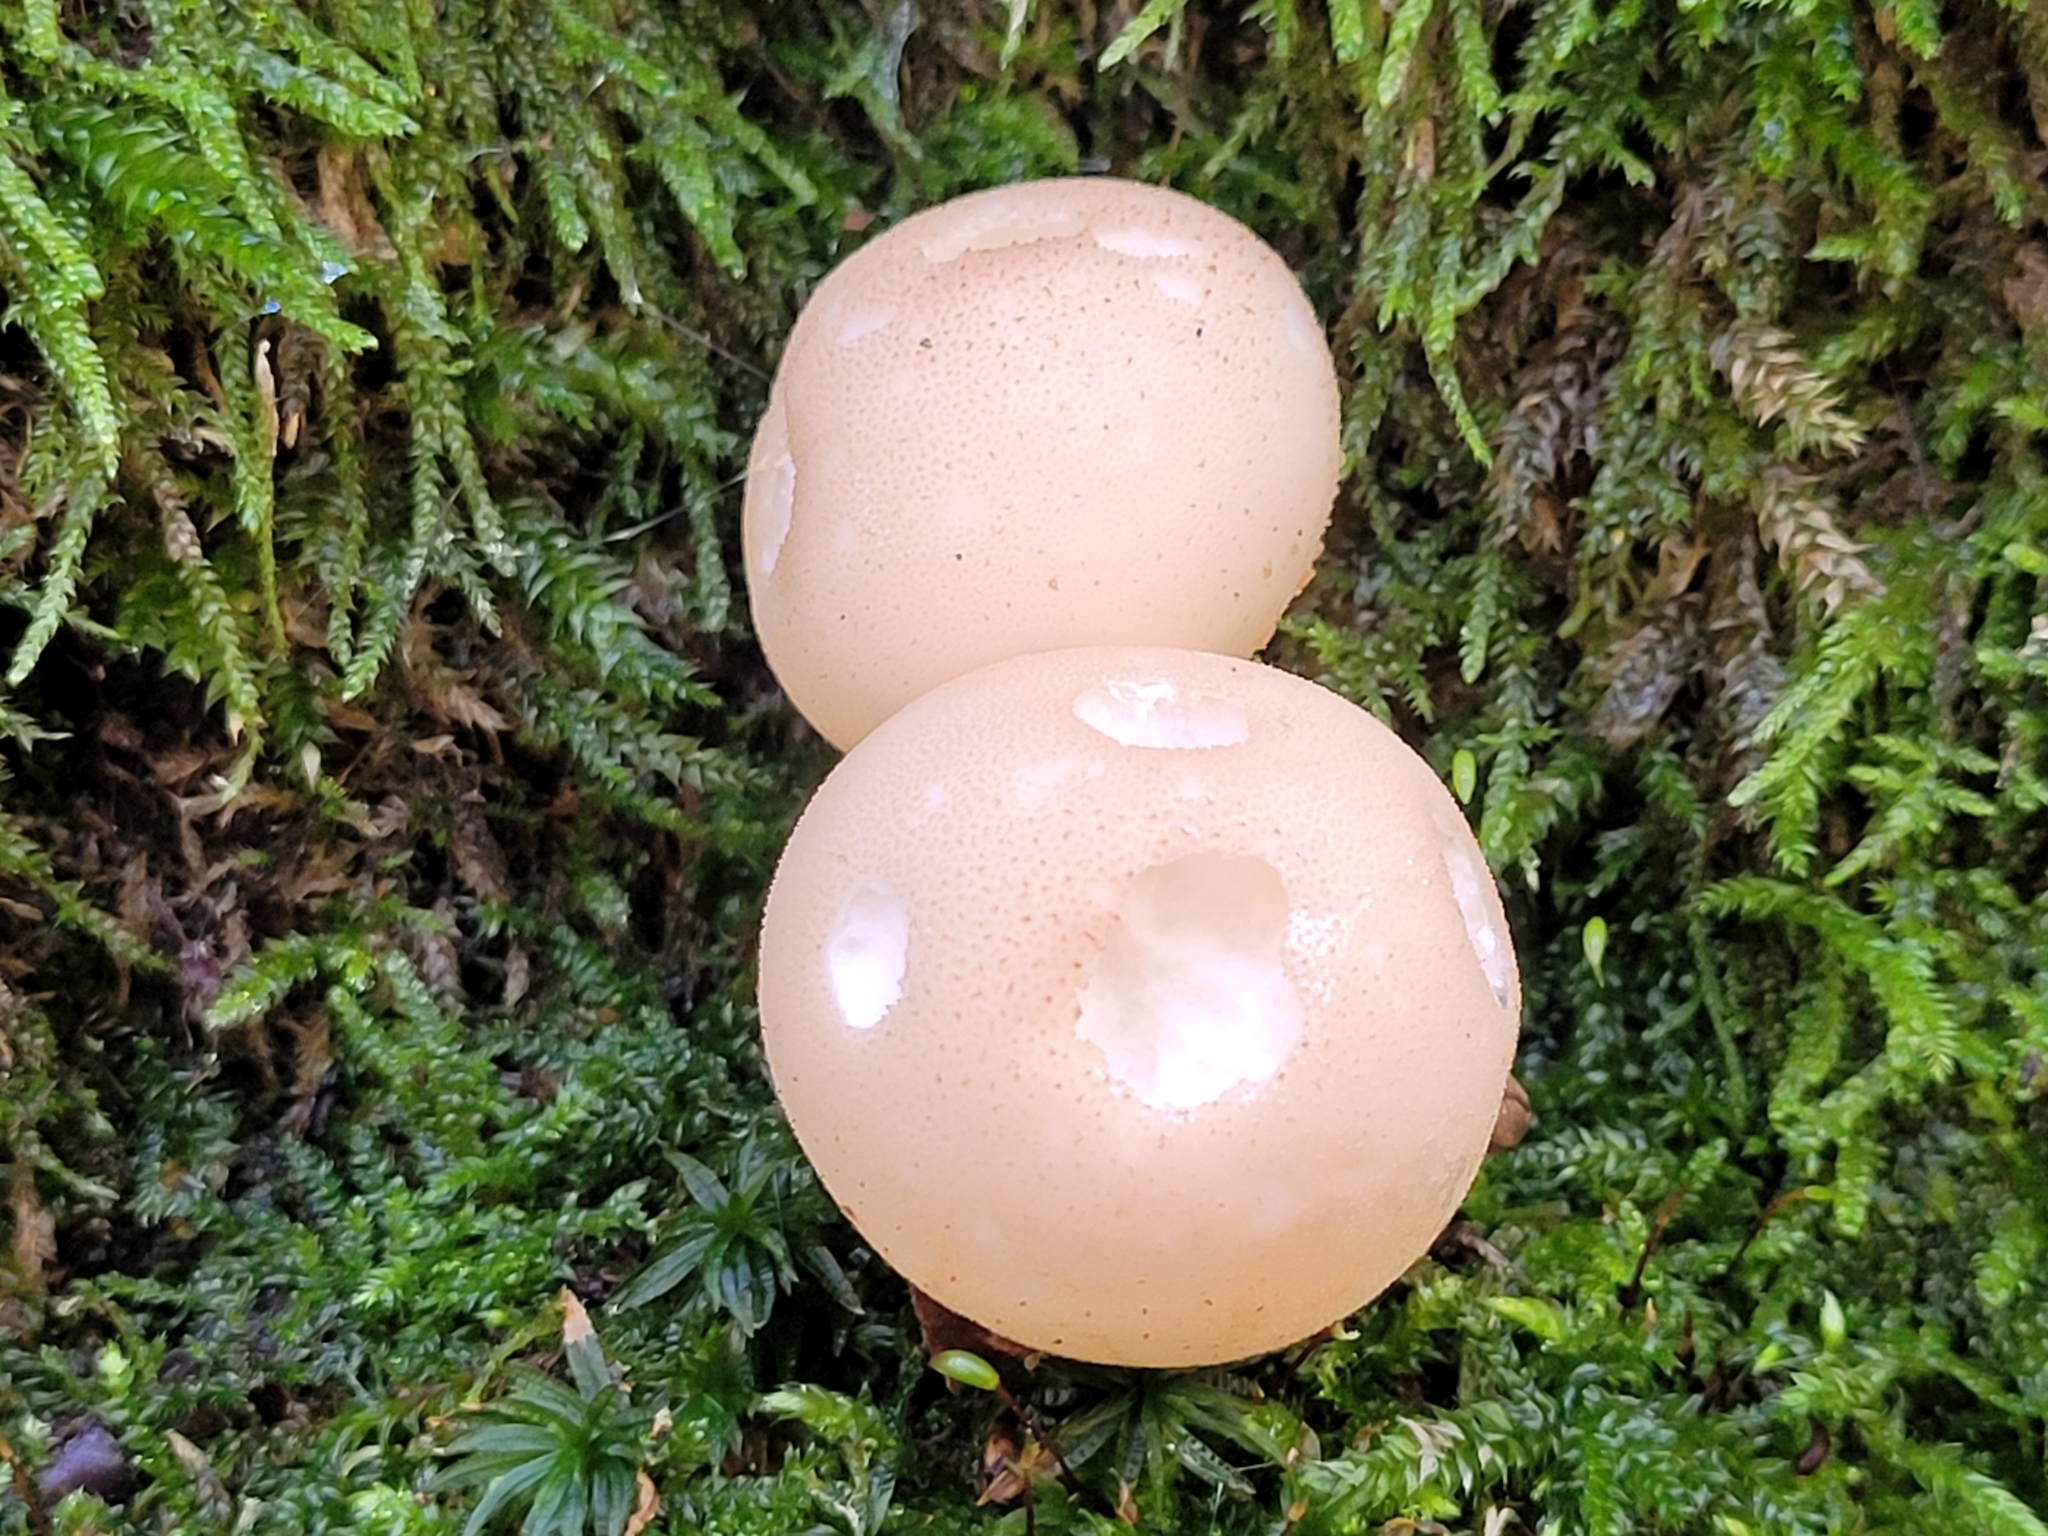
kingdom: Fungi
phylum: Basidiomycota
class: Agaricomycetes
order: Agaricales
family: Lycoperdaceae
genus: Apioperdon
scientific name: Apioperdon pyriforme
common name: Pear-shaped puffball
